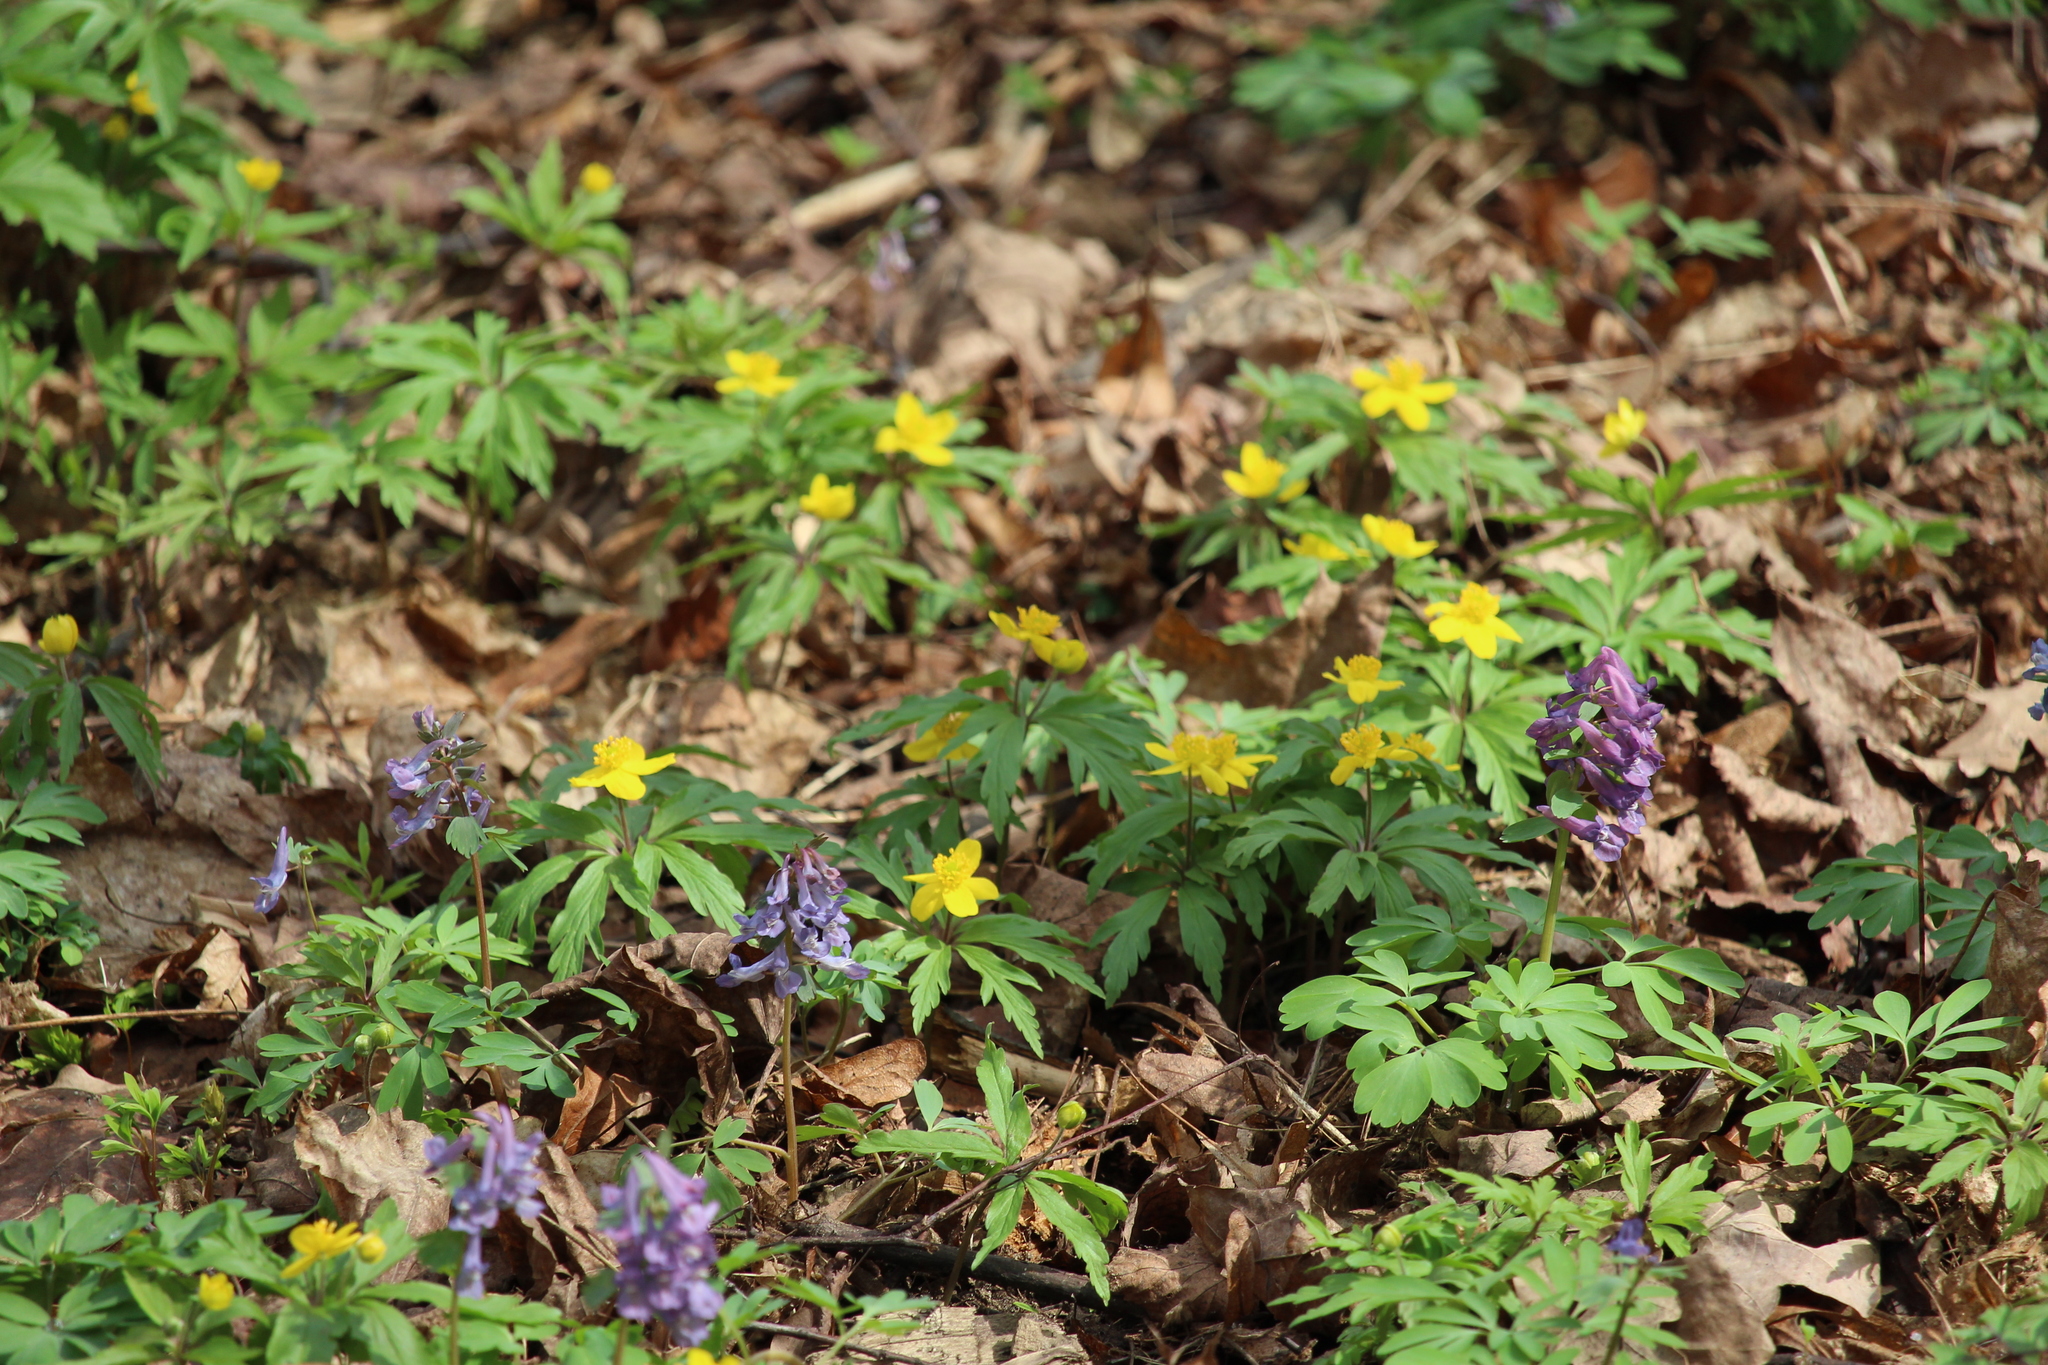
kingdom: Plantae
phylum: Tracheophyta
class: Magnoliopsida
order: Ranunculales
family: Ranunculaceae
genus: Anemone
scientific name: Anemone ranunculoides
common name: Yellow anemone
